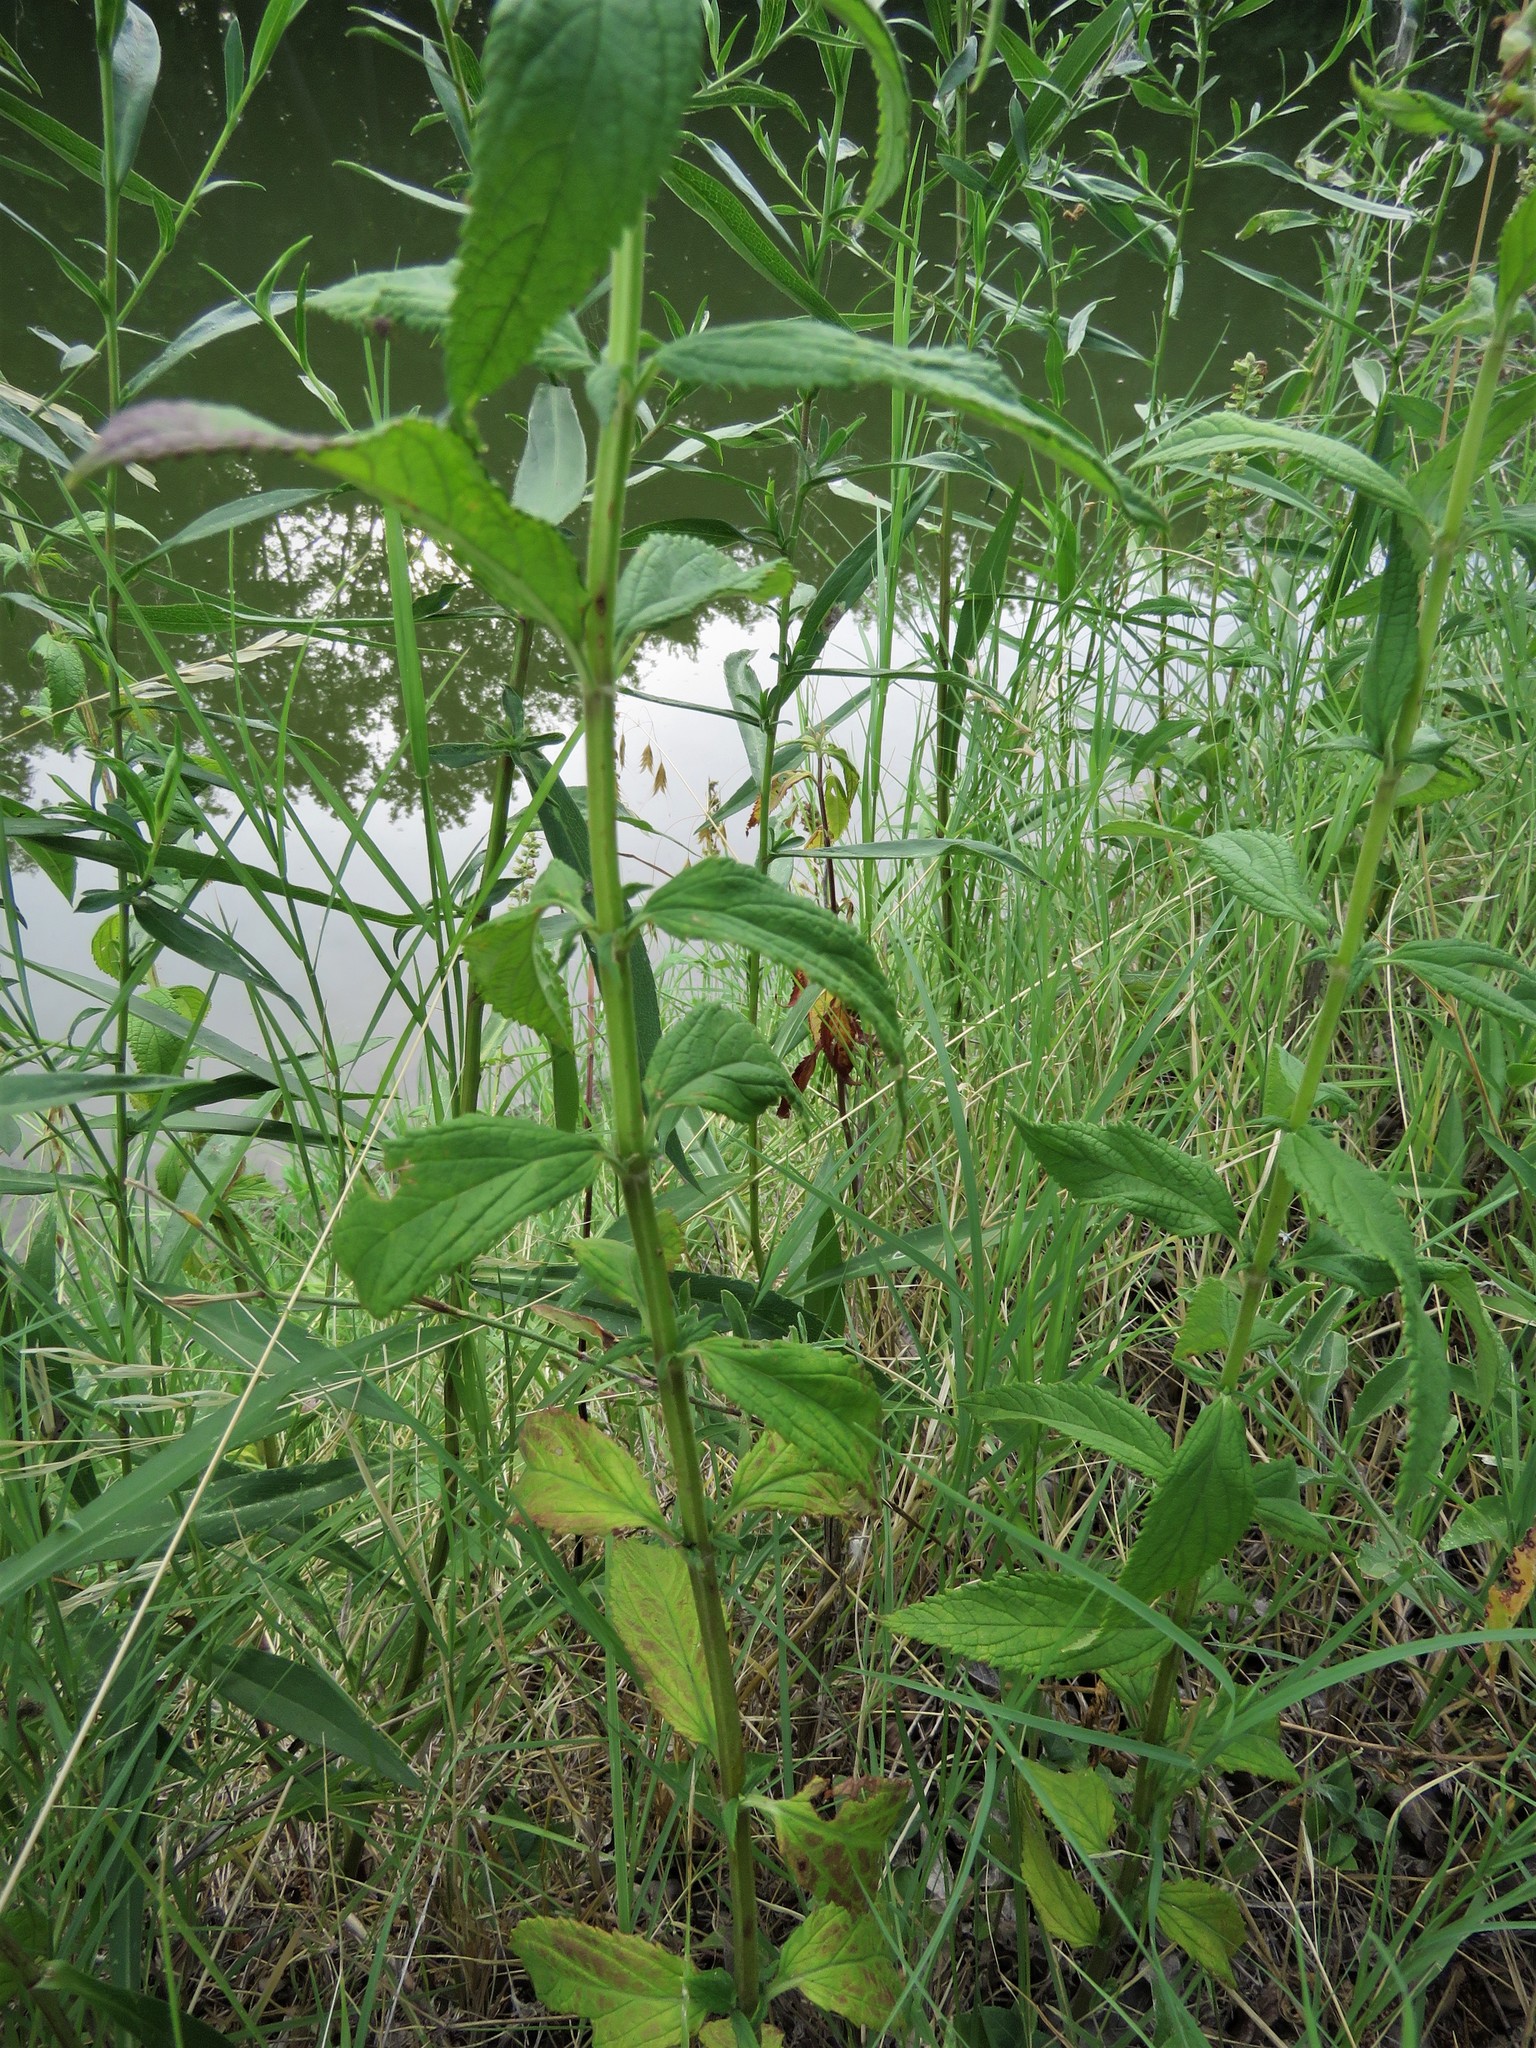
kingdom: Plantae
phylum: Tracheophyta
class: Magnoliopsida
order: Lamiales
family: Lamiaceae
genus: Teucrium
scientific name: Teucrium canadense
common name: American germander
